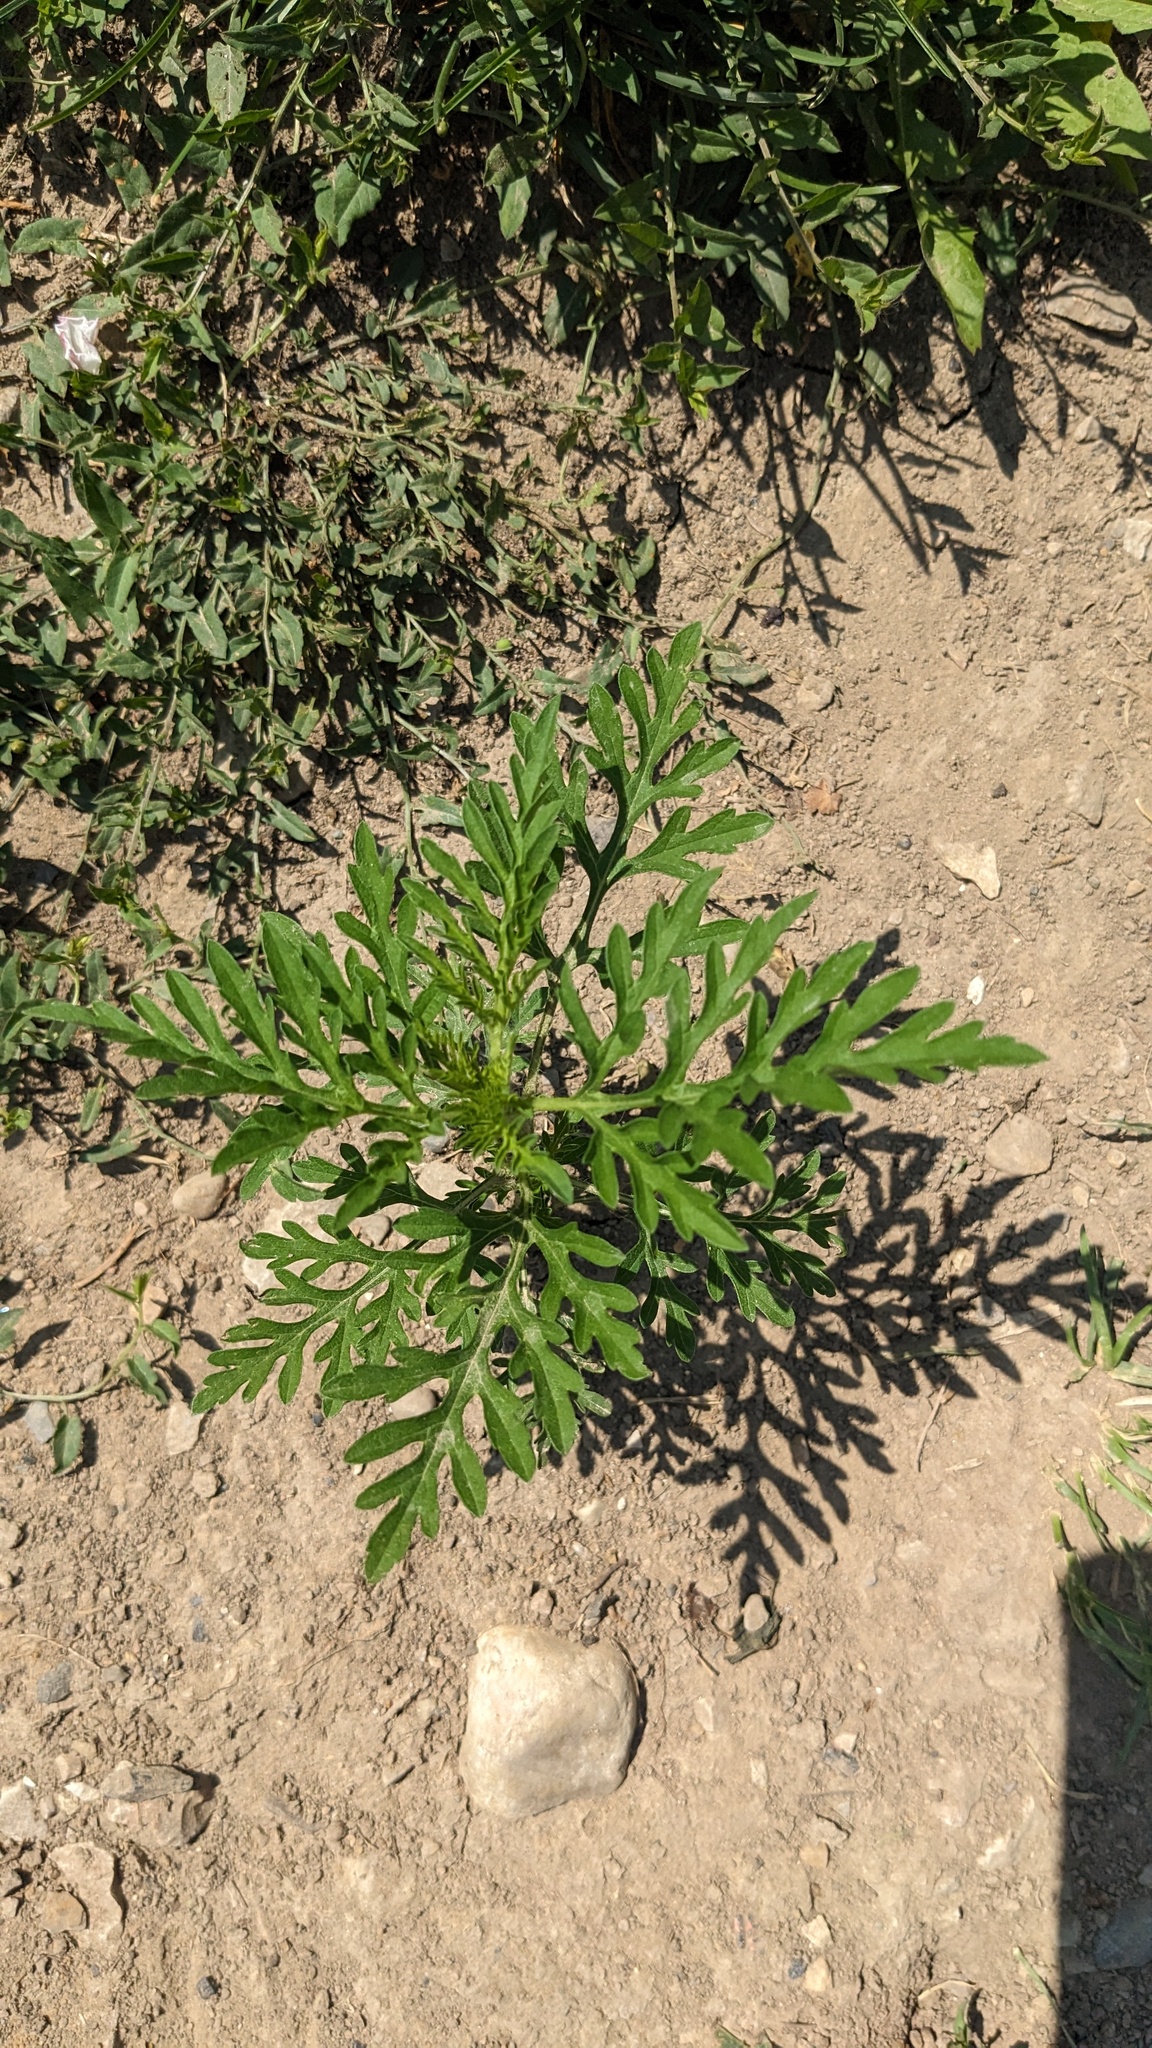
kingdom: Plantae
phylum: Tracheophyta
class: Magnoliopsida
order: Asterales
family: Asteraceae
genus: Ambrosia
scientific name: Ambrosia artemisiifolia
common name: Annual ragweed
